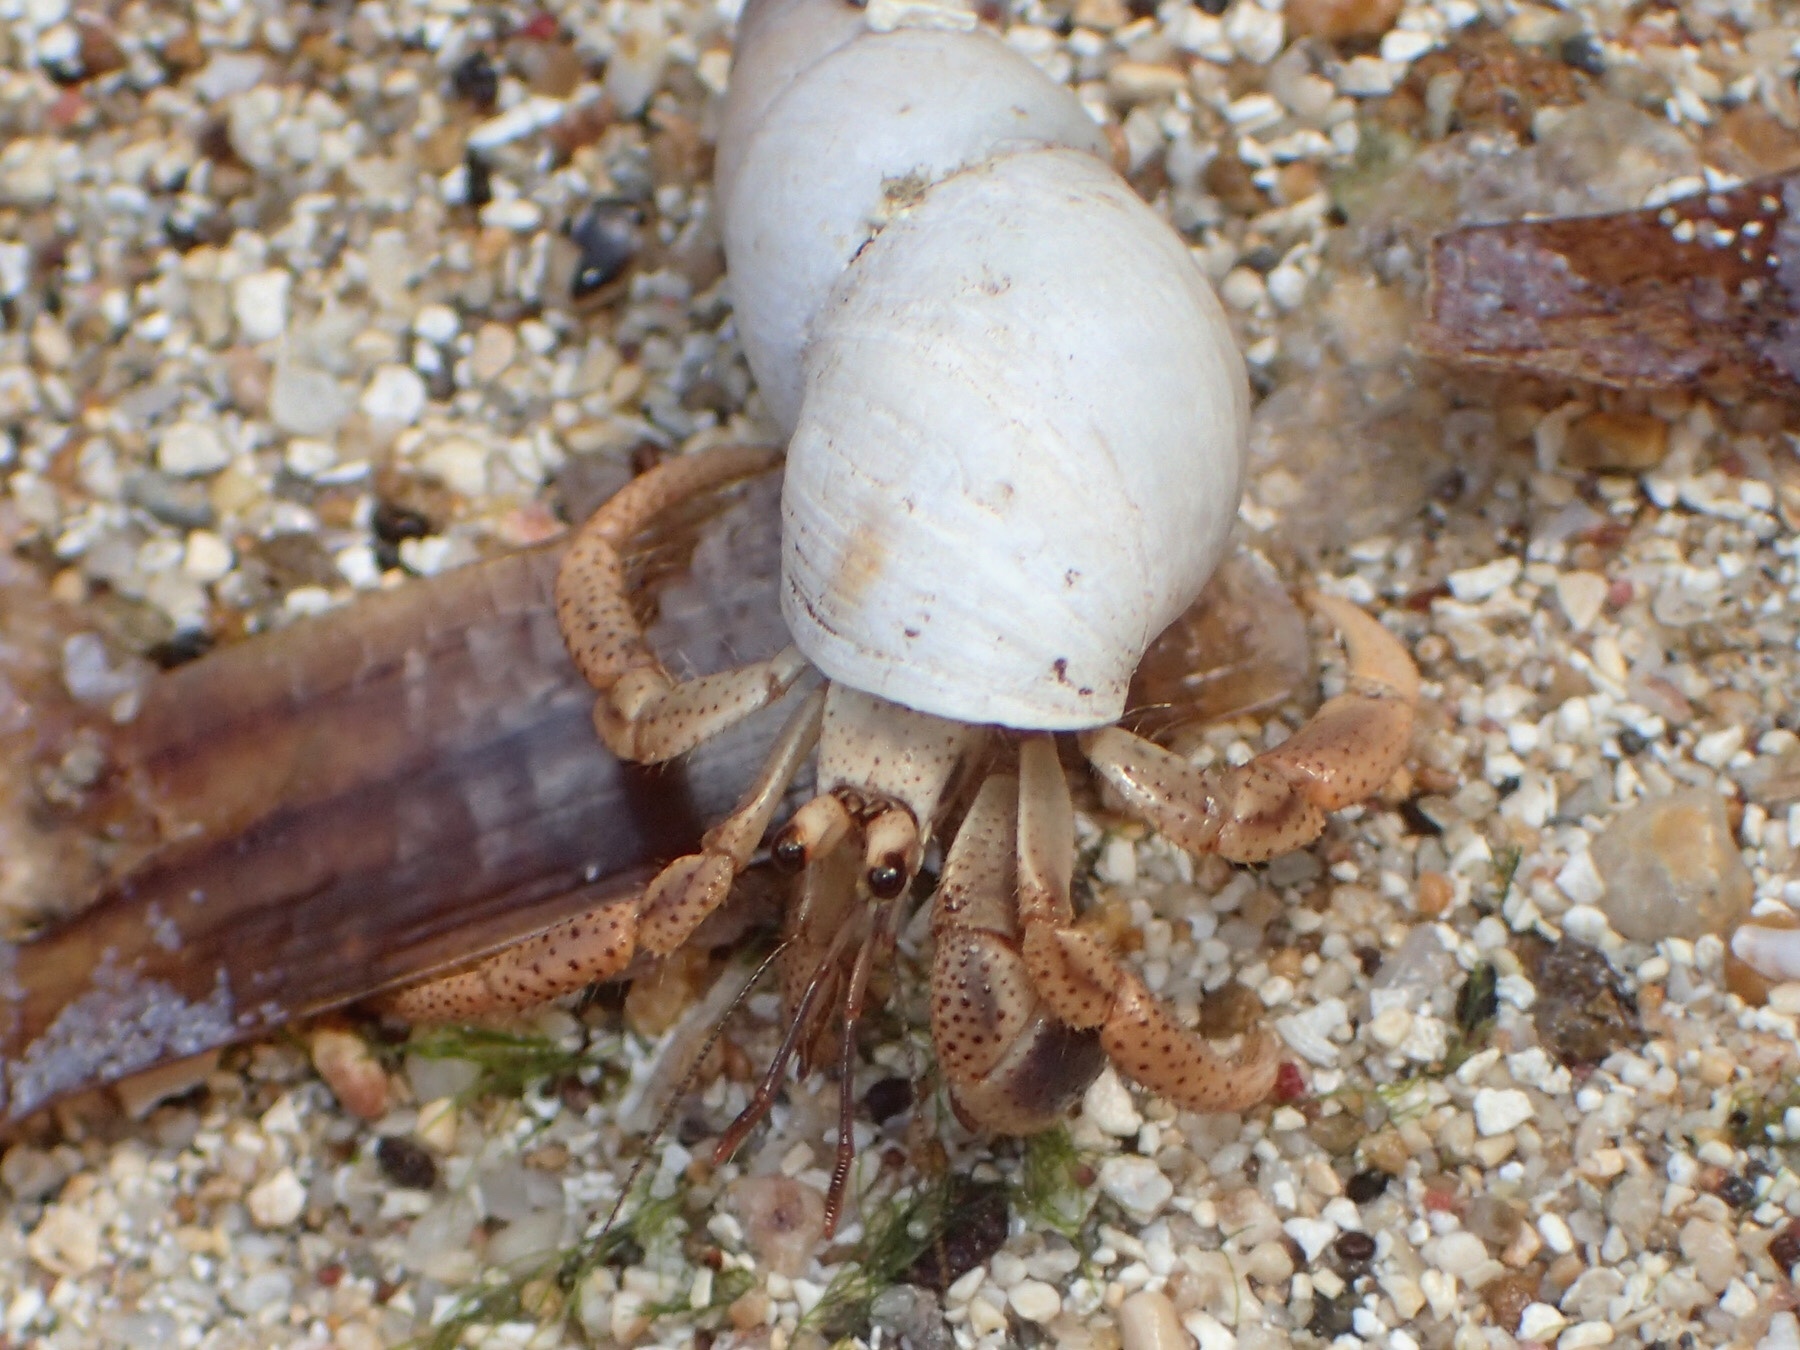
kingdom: Animalia
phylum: Arthropoda
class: Malacostraca
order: Decapoda
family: Coenobitidae
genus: Coenobita
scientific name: Coenobita clypeatus
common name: Caribbean hermit crab
